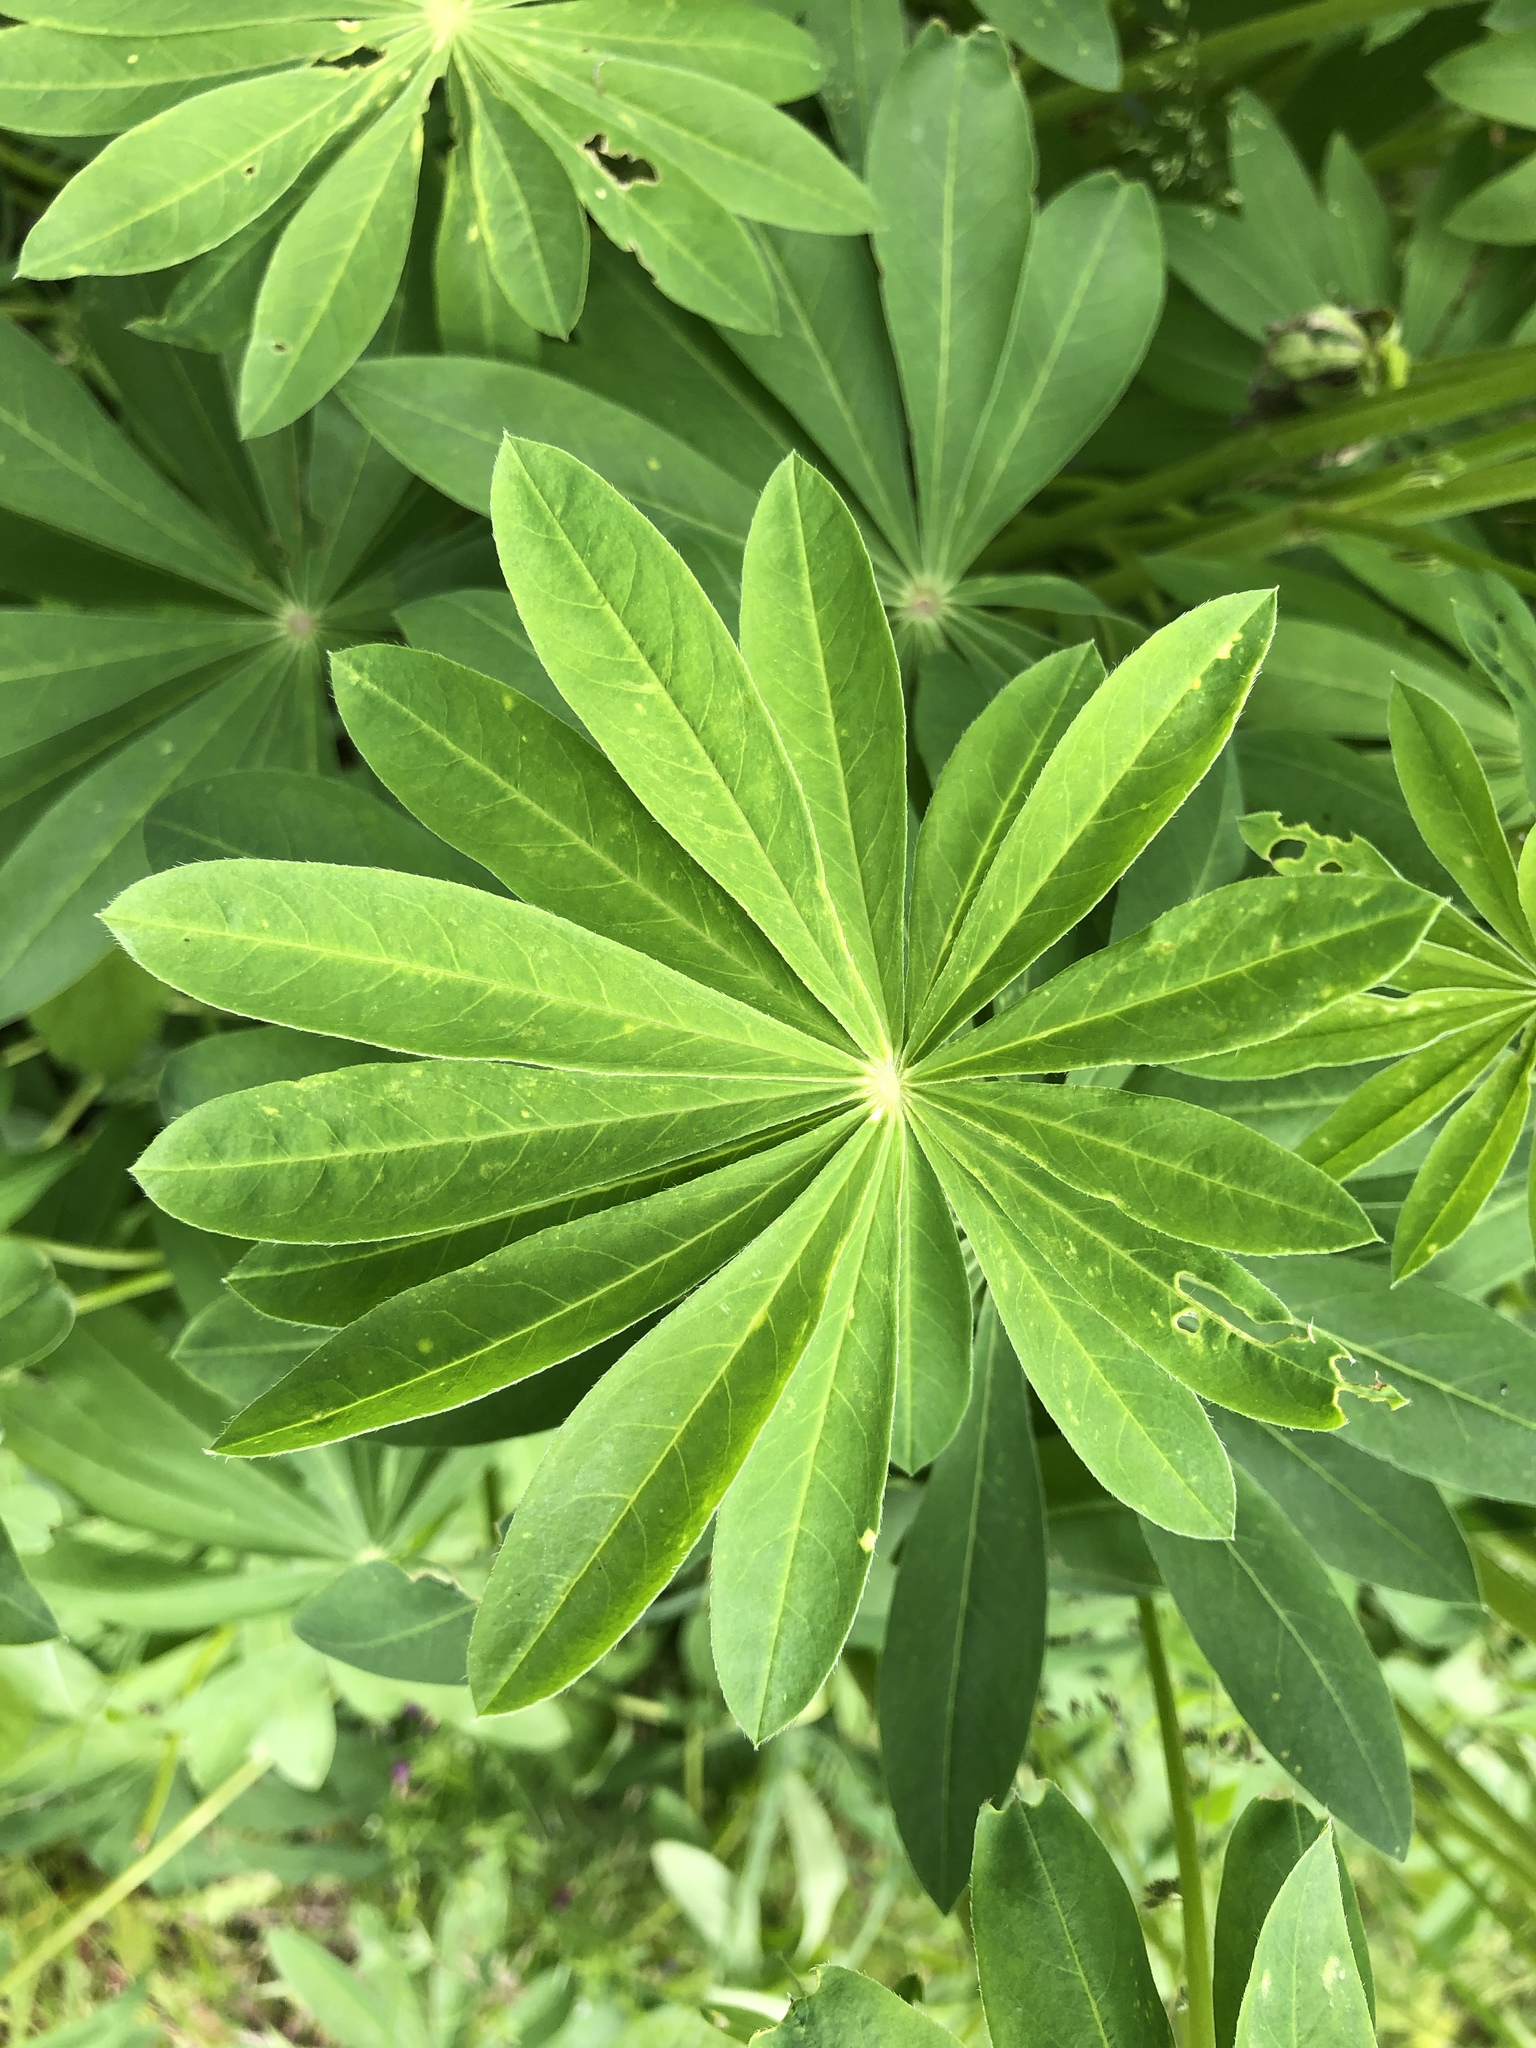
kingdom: Plantae
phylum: Tracheophyta
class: Magnoliopsida
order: Fabales
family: Fabaceae
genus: Lupinus
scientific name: Lupinus polyphyllus
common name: Garden lupin
